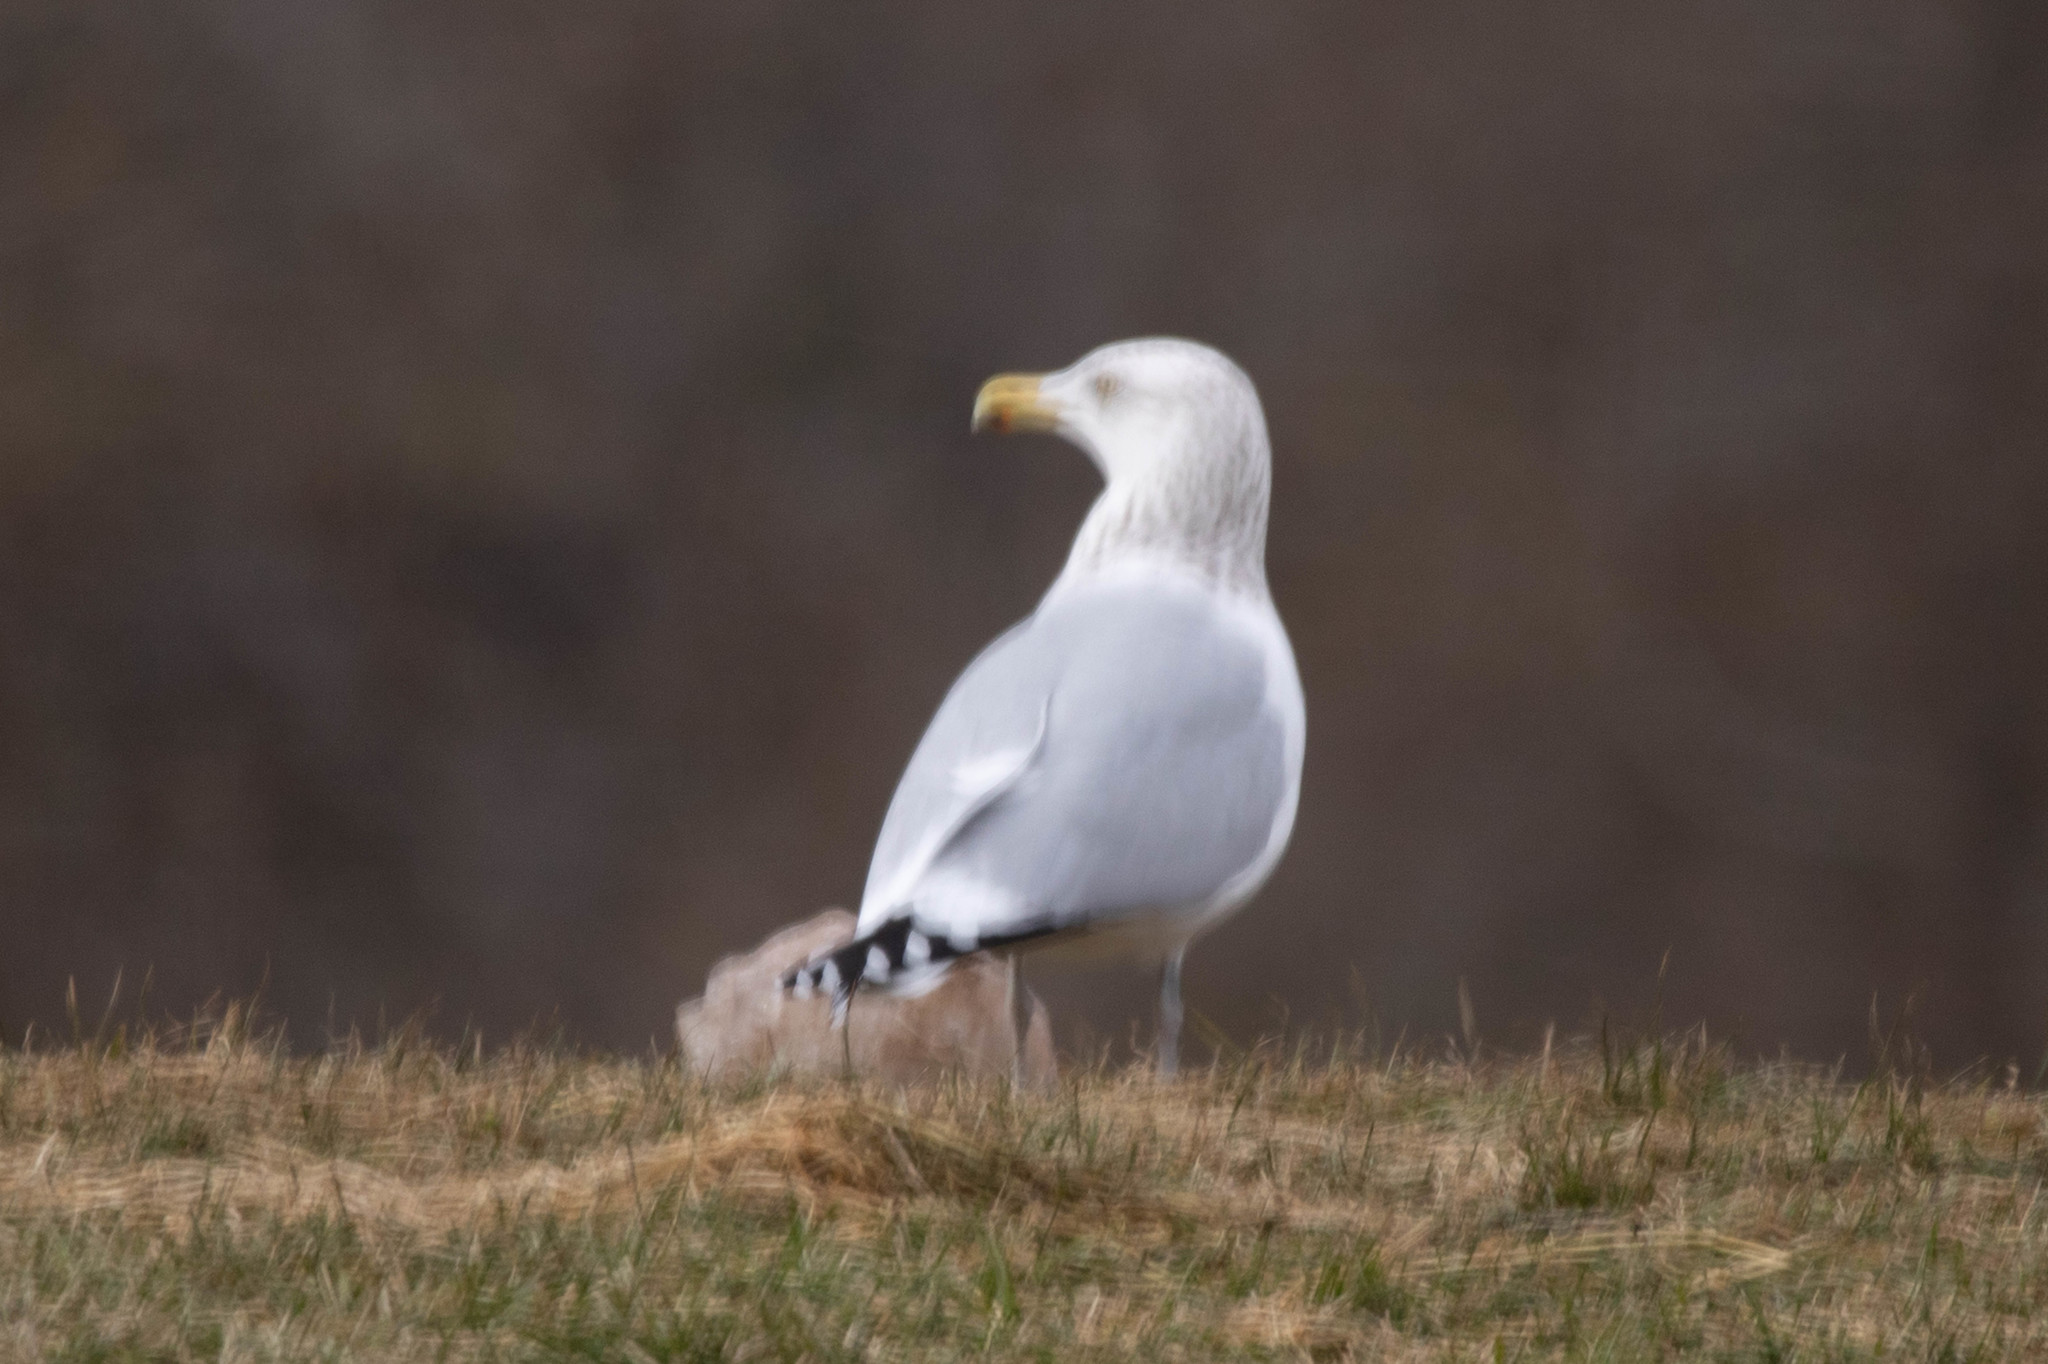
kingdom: Animalia
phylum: Chordata
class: Aves
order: Charadriiformes
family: Laridae
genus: Larus
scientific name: Larus argentatus
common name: Herring gull
